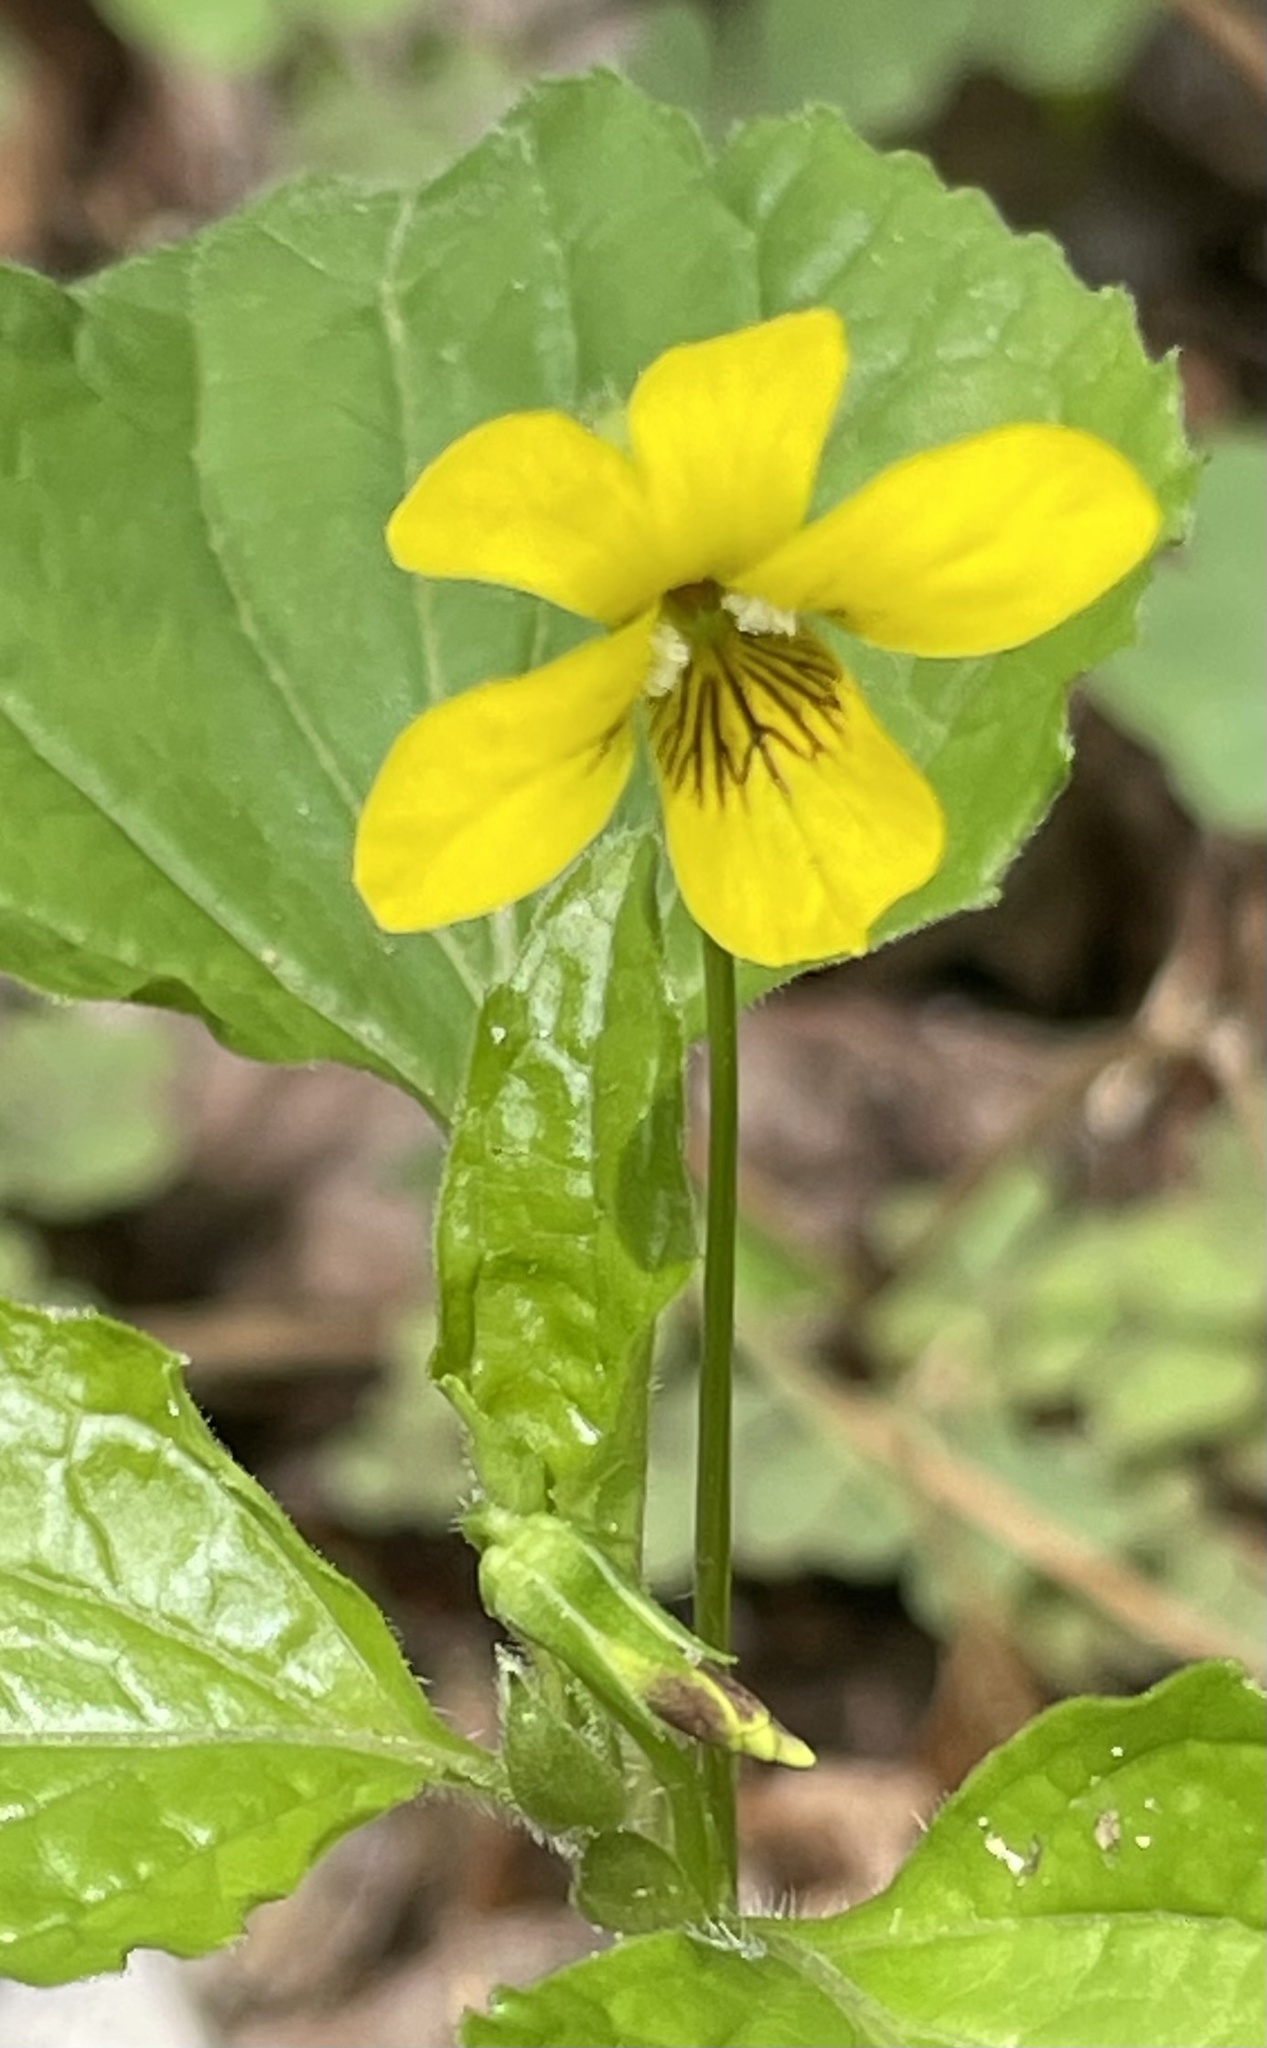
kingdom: Plantae
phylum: Tracheophyta
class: Magnoliopsida
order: Malpighiales
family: Violaceae
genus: Viola
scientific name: Viola glaberrima
